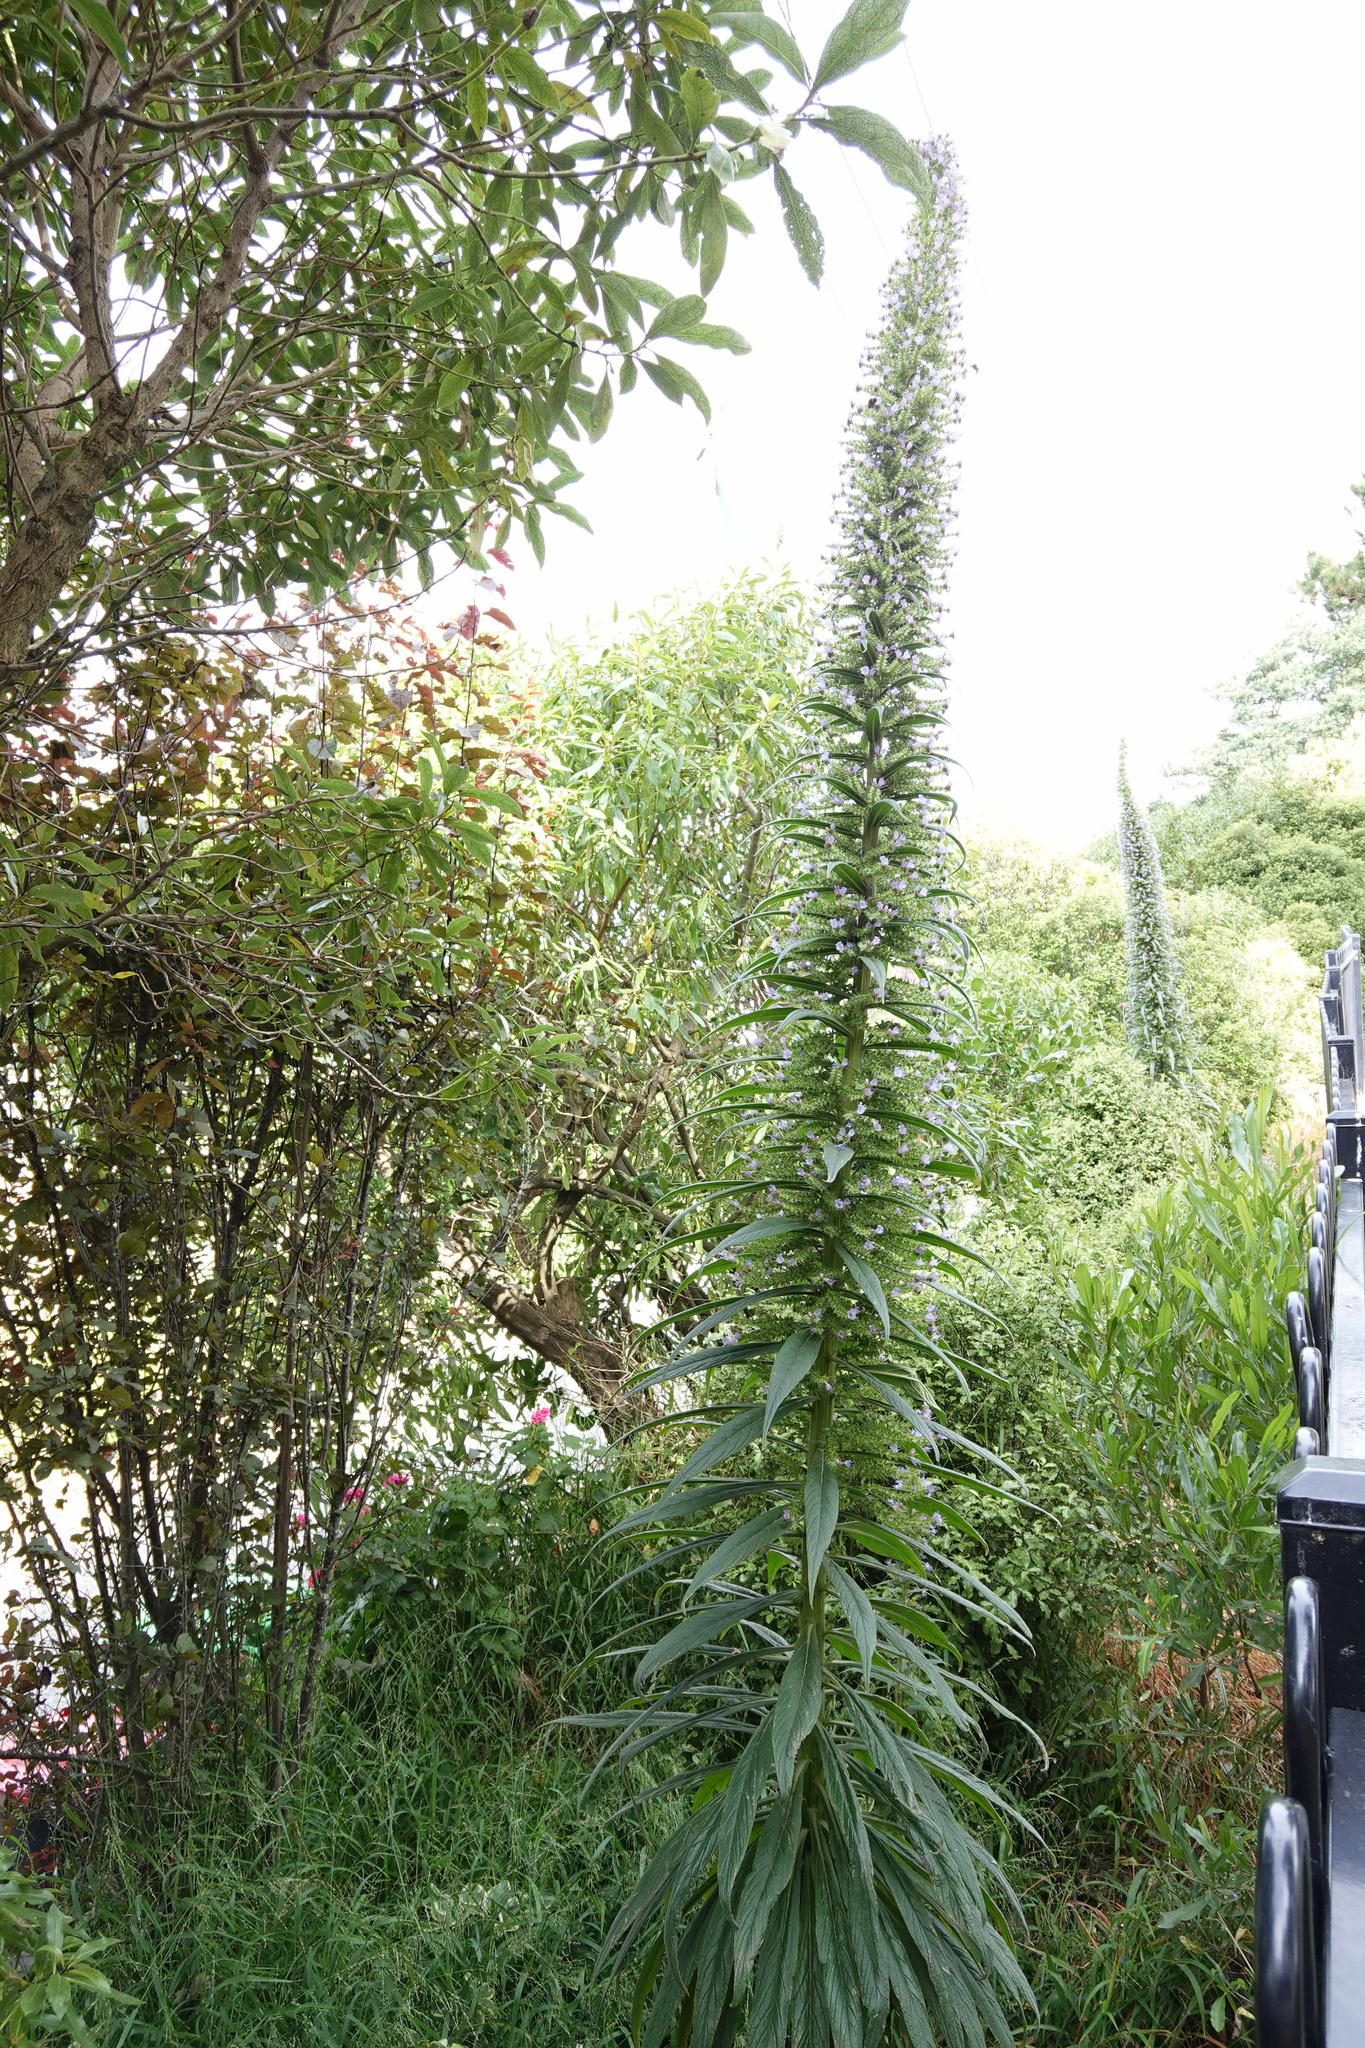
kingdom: Plantae
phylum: Tracheophyta
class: Magnoliopsida
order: Boraginales
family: Boraginaceae
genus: Echium
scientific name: Echium pininana
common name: Giant viper's-bugloss
